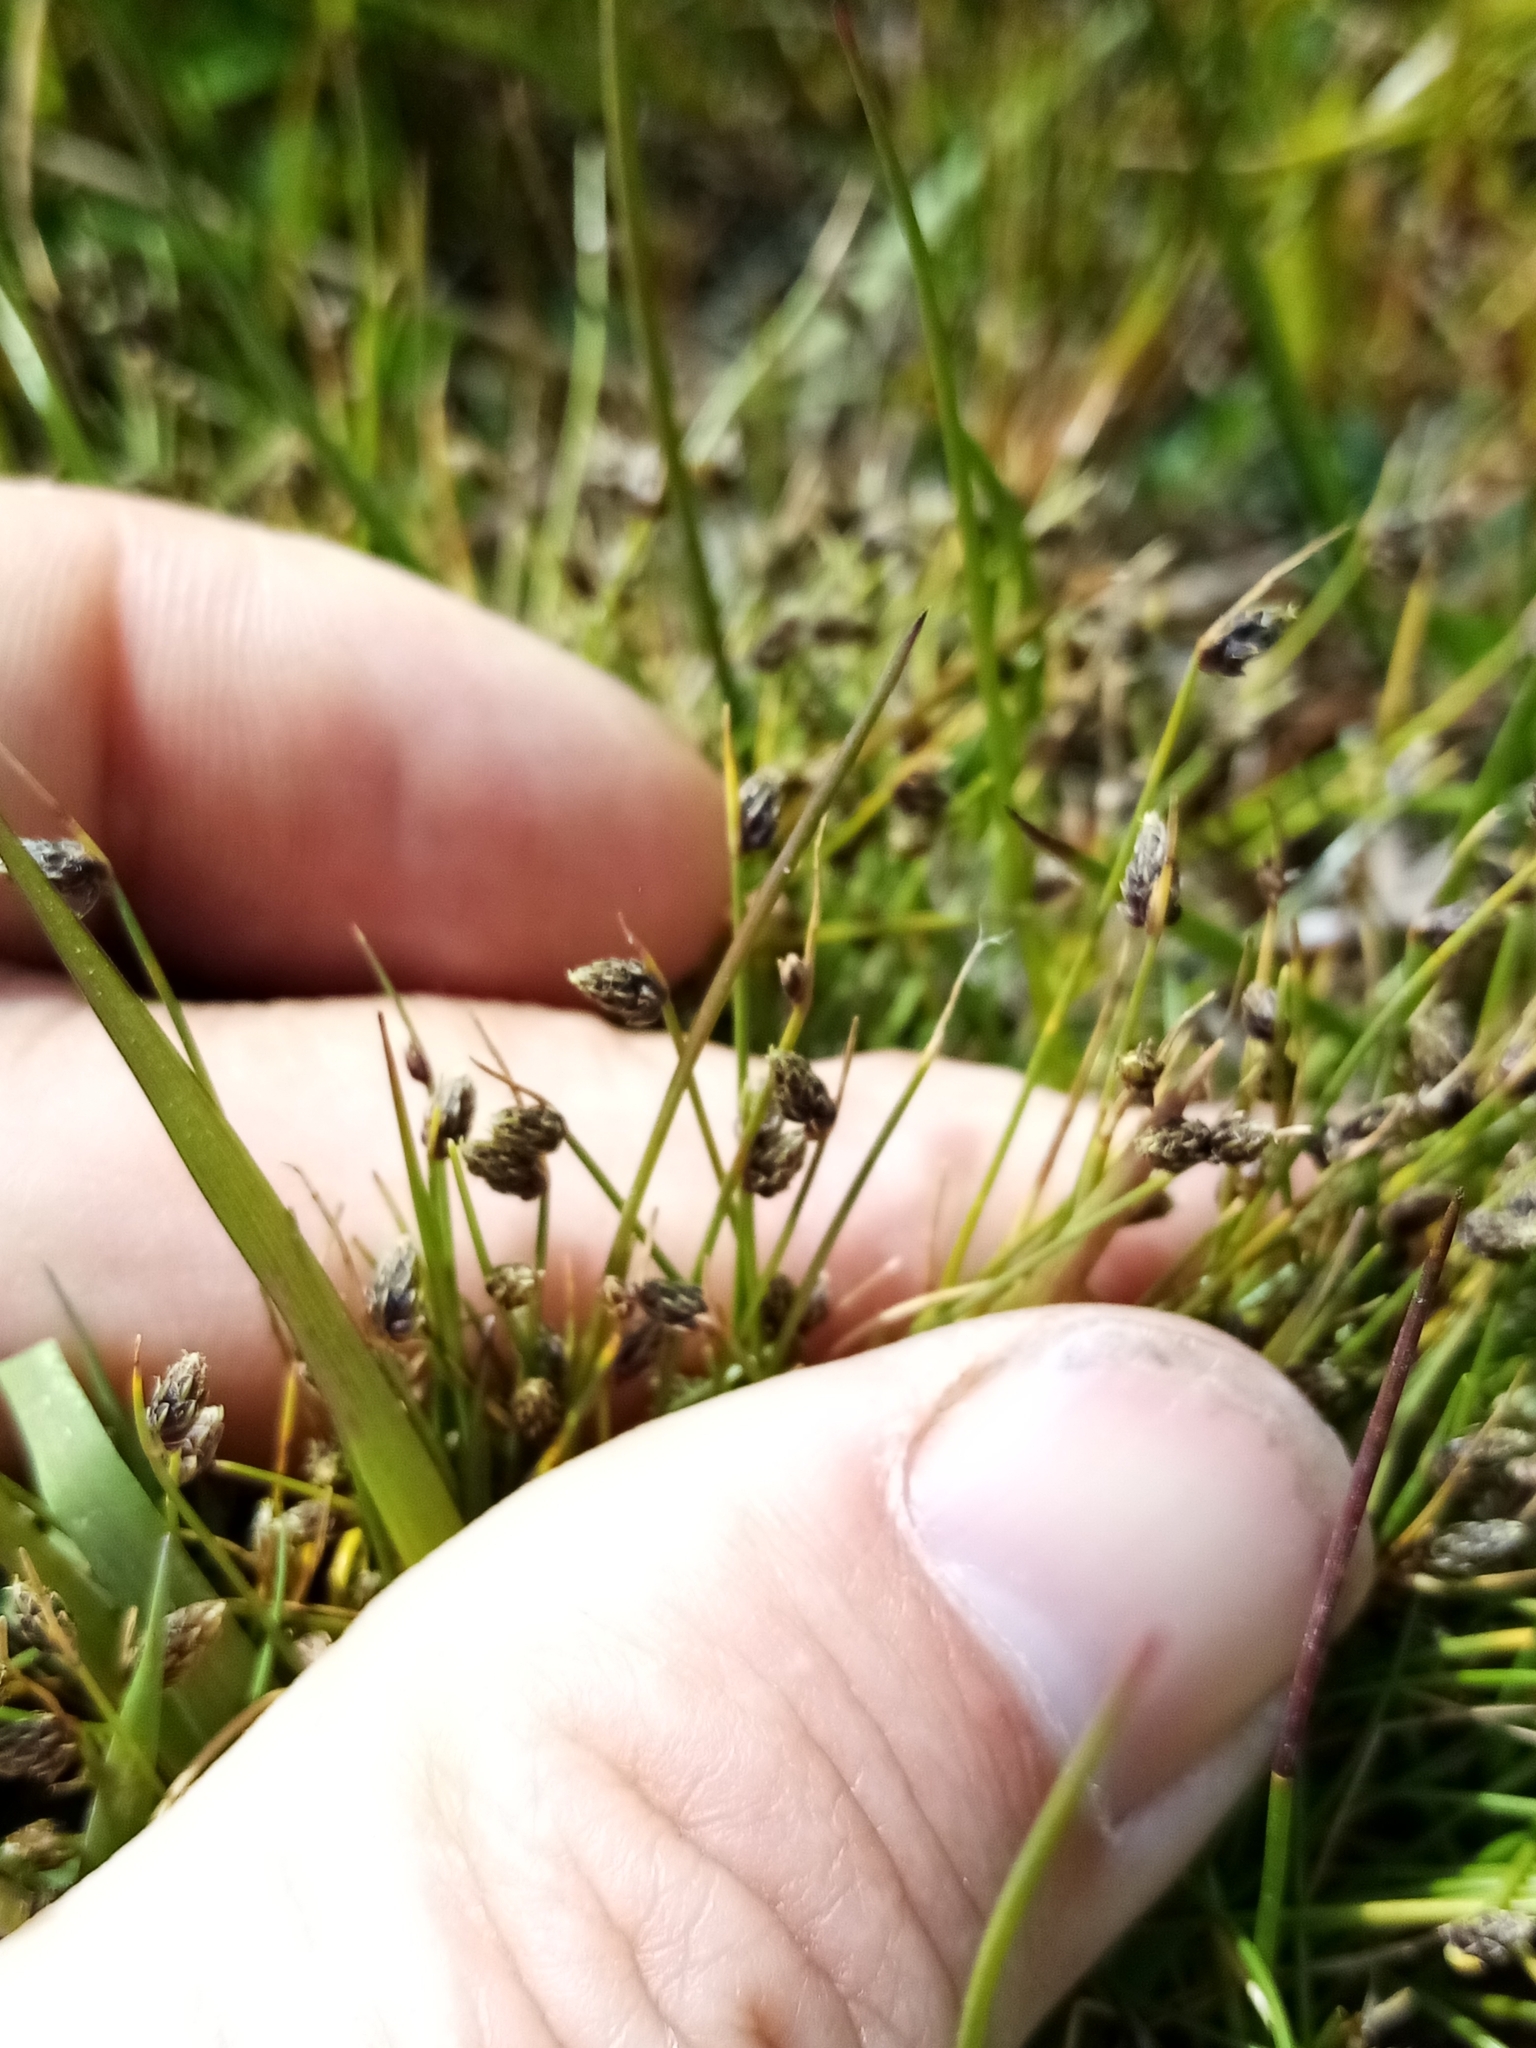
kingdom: Plantae
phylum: Tracheophyta
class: Liliopsida
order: Poales
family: Cyperaceae
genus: Isolepis
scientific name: Isolepis cernua
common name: Slender club-rush
